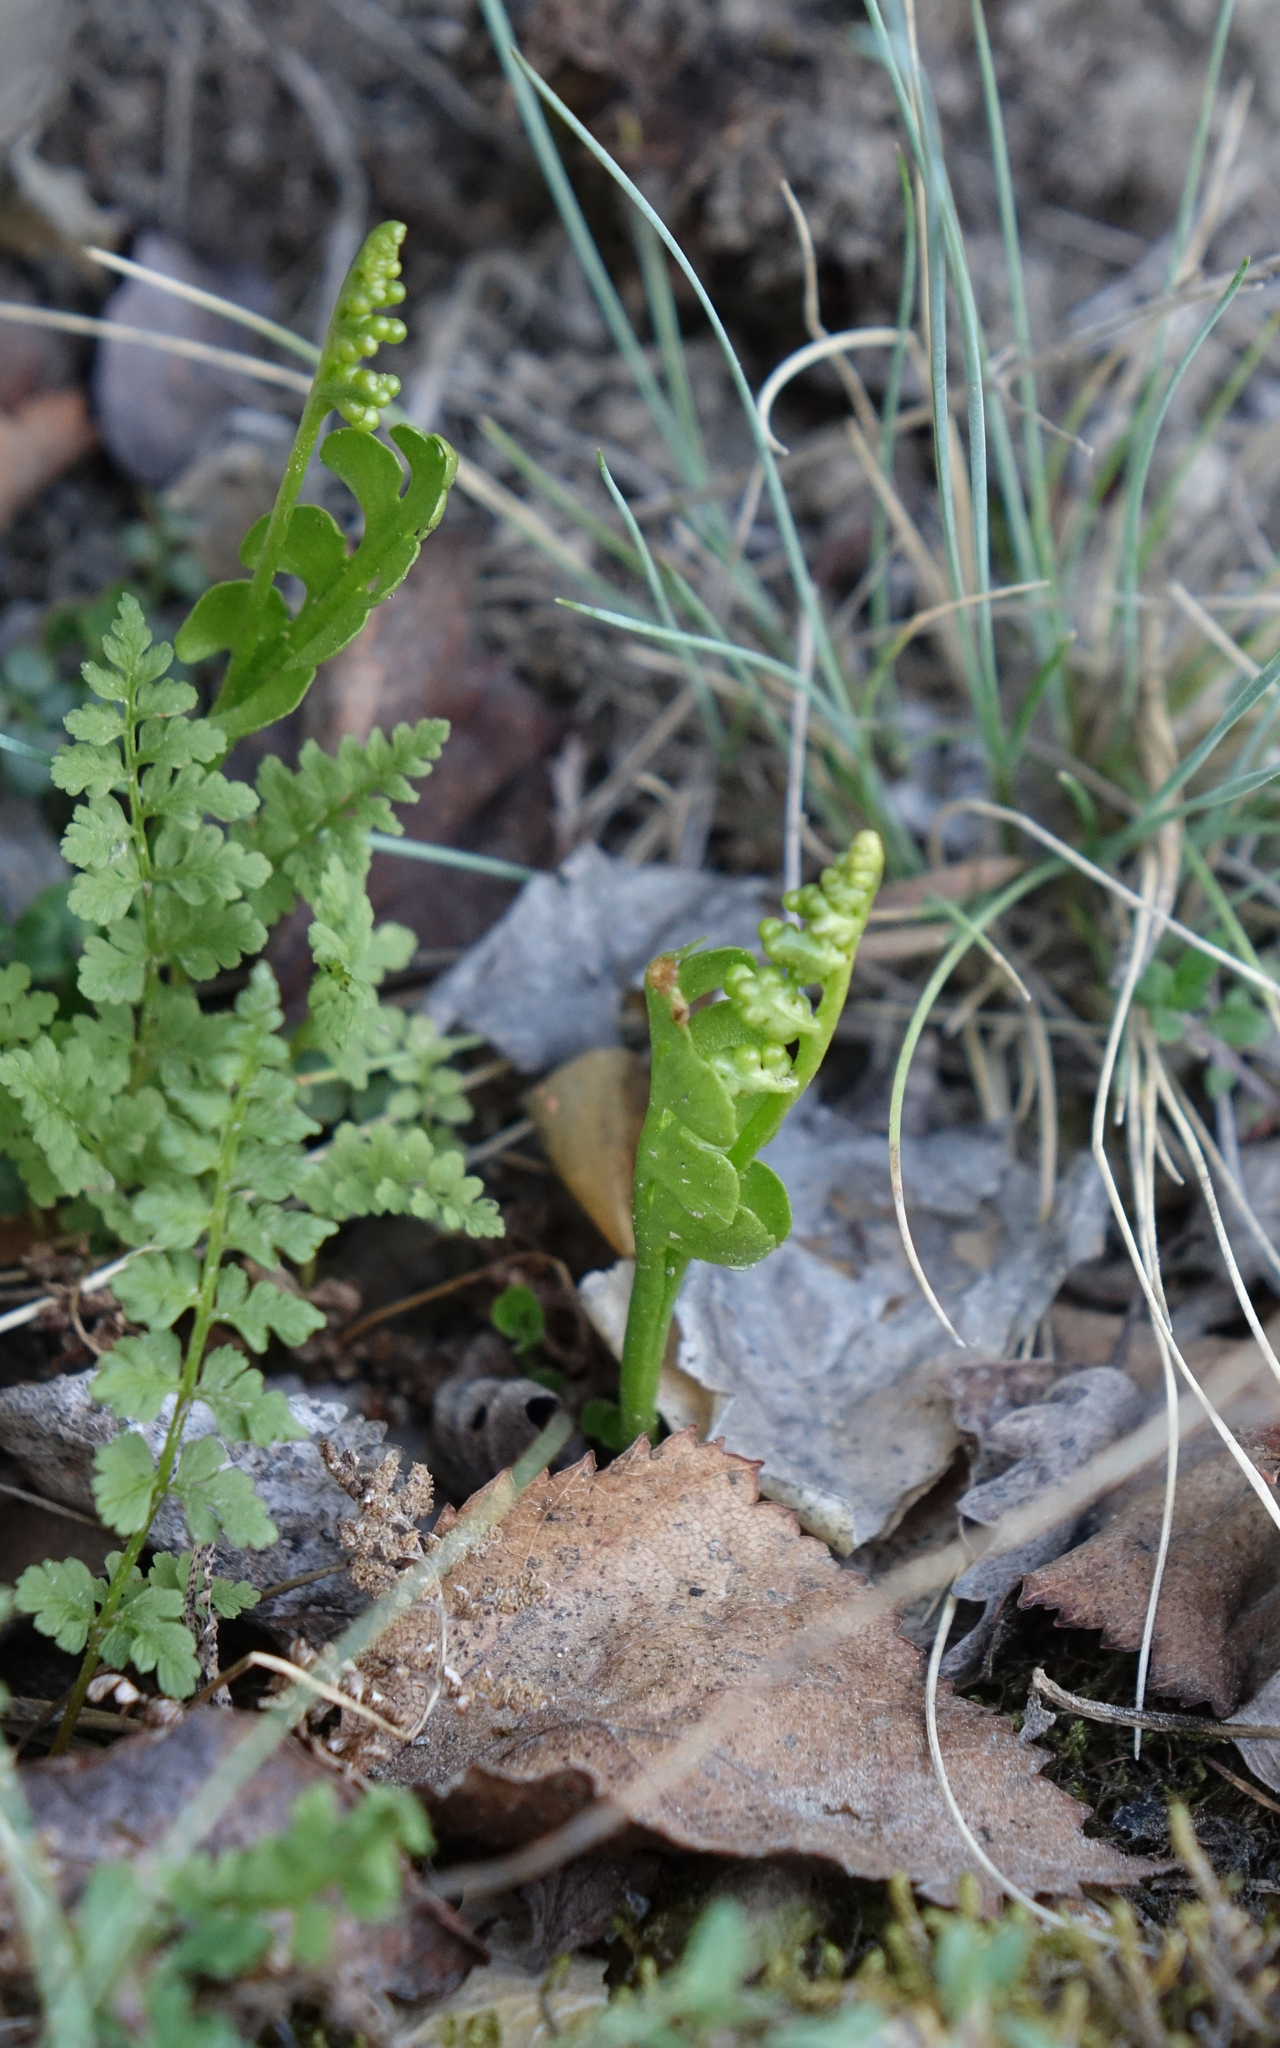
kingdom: Plantae
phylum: Tracheophyta
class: Polypodiopsida
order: Polypodiales
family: Cystopteridaceae
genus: Cystopteris
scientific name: Cystopteris fragilis
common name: Brittle bladder fern
